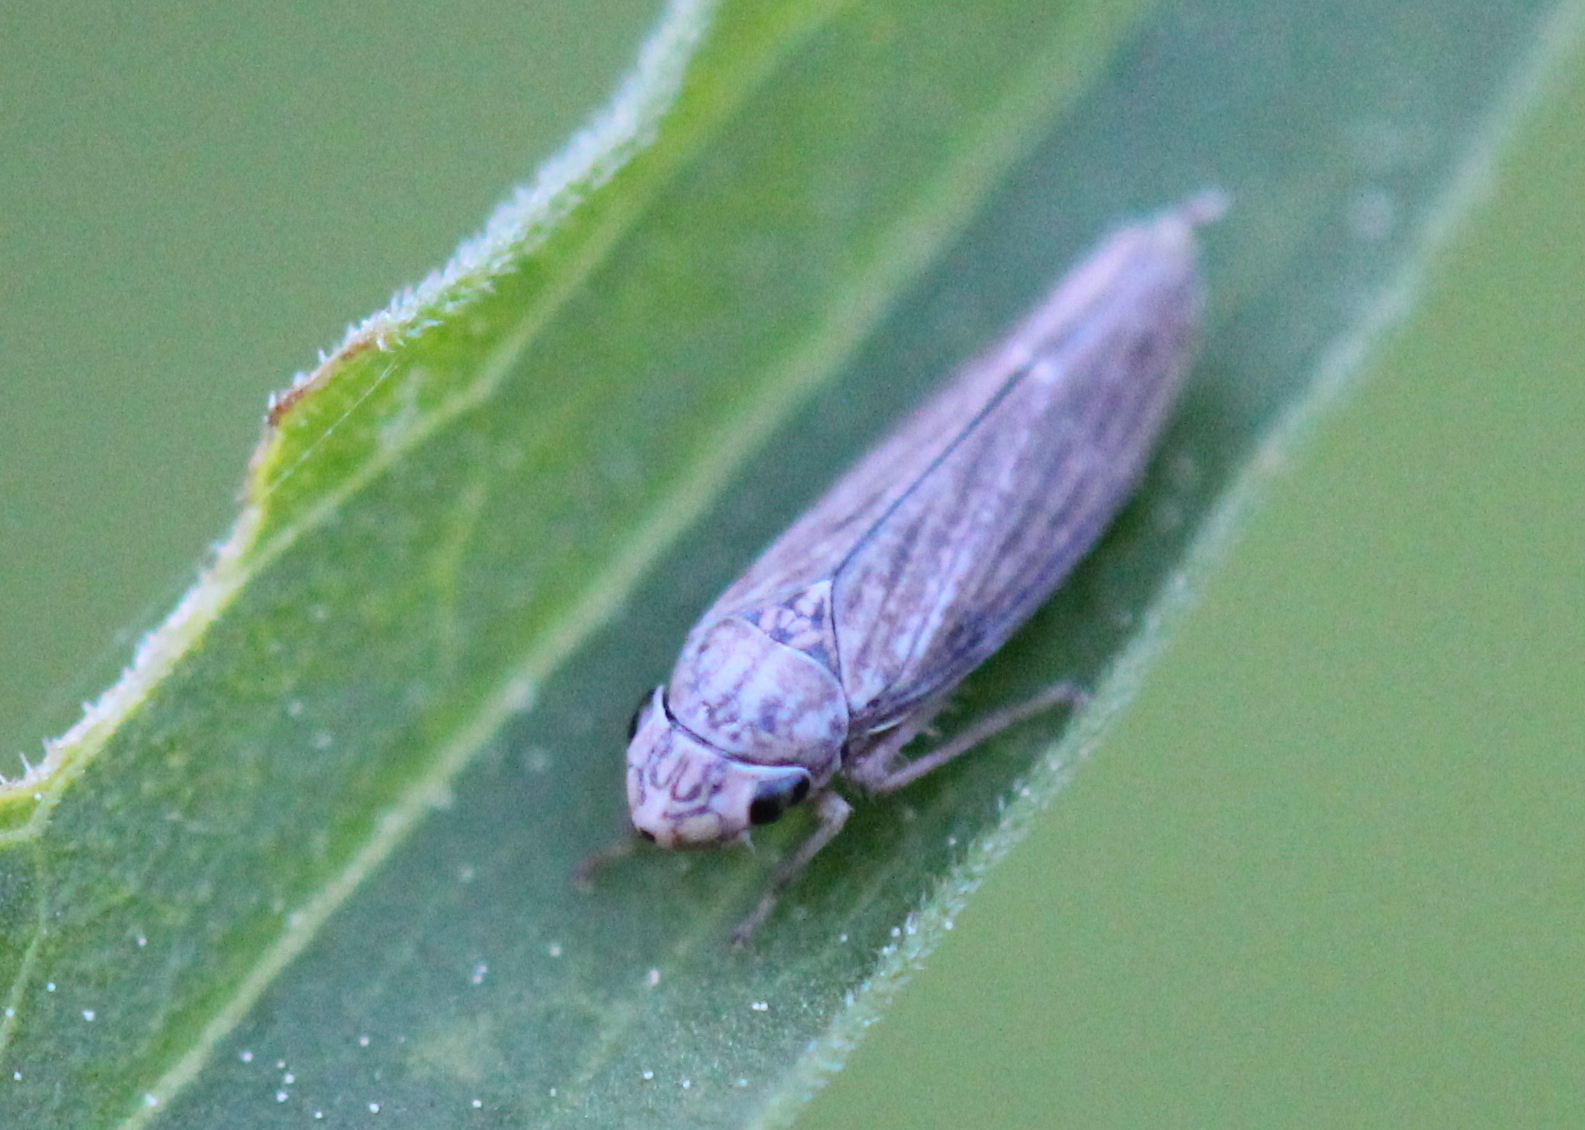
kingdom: Animalia
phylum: Arthropoda
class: Insecta
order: Hemiptera
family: Cicadellidae
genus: Neokolla
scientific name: Neokolla hieroglyphica
